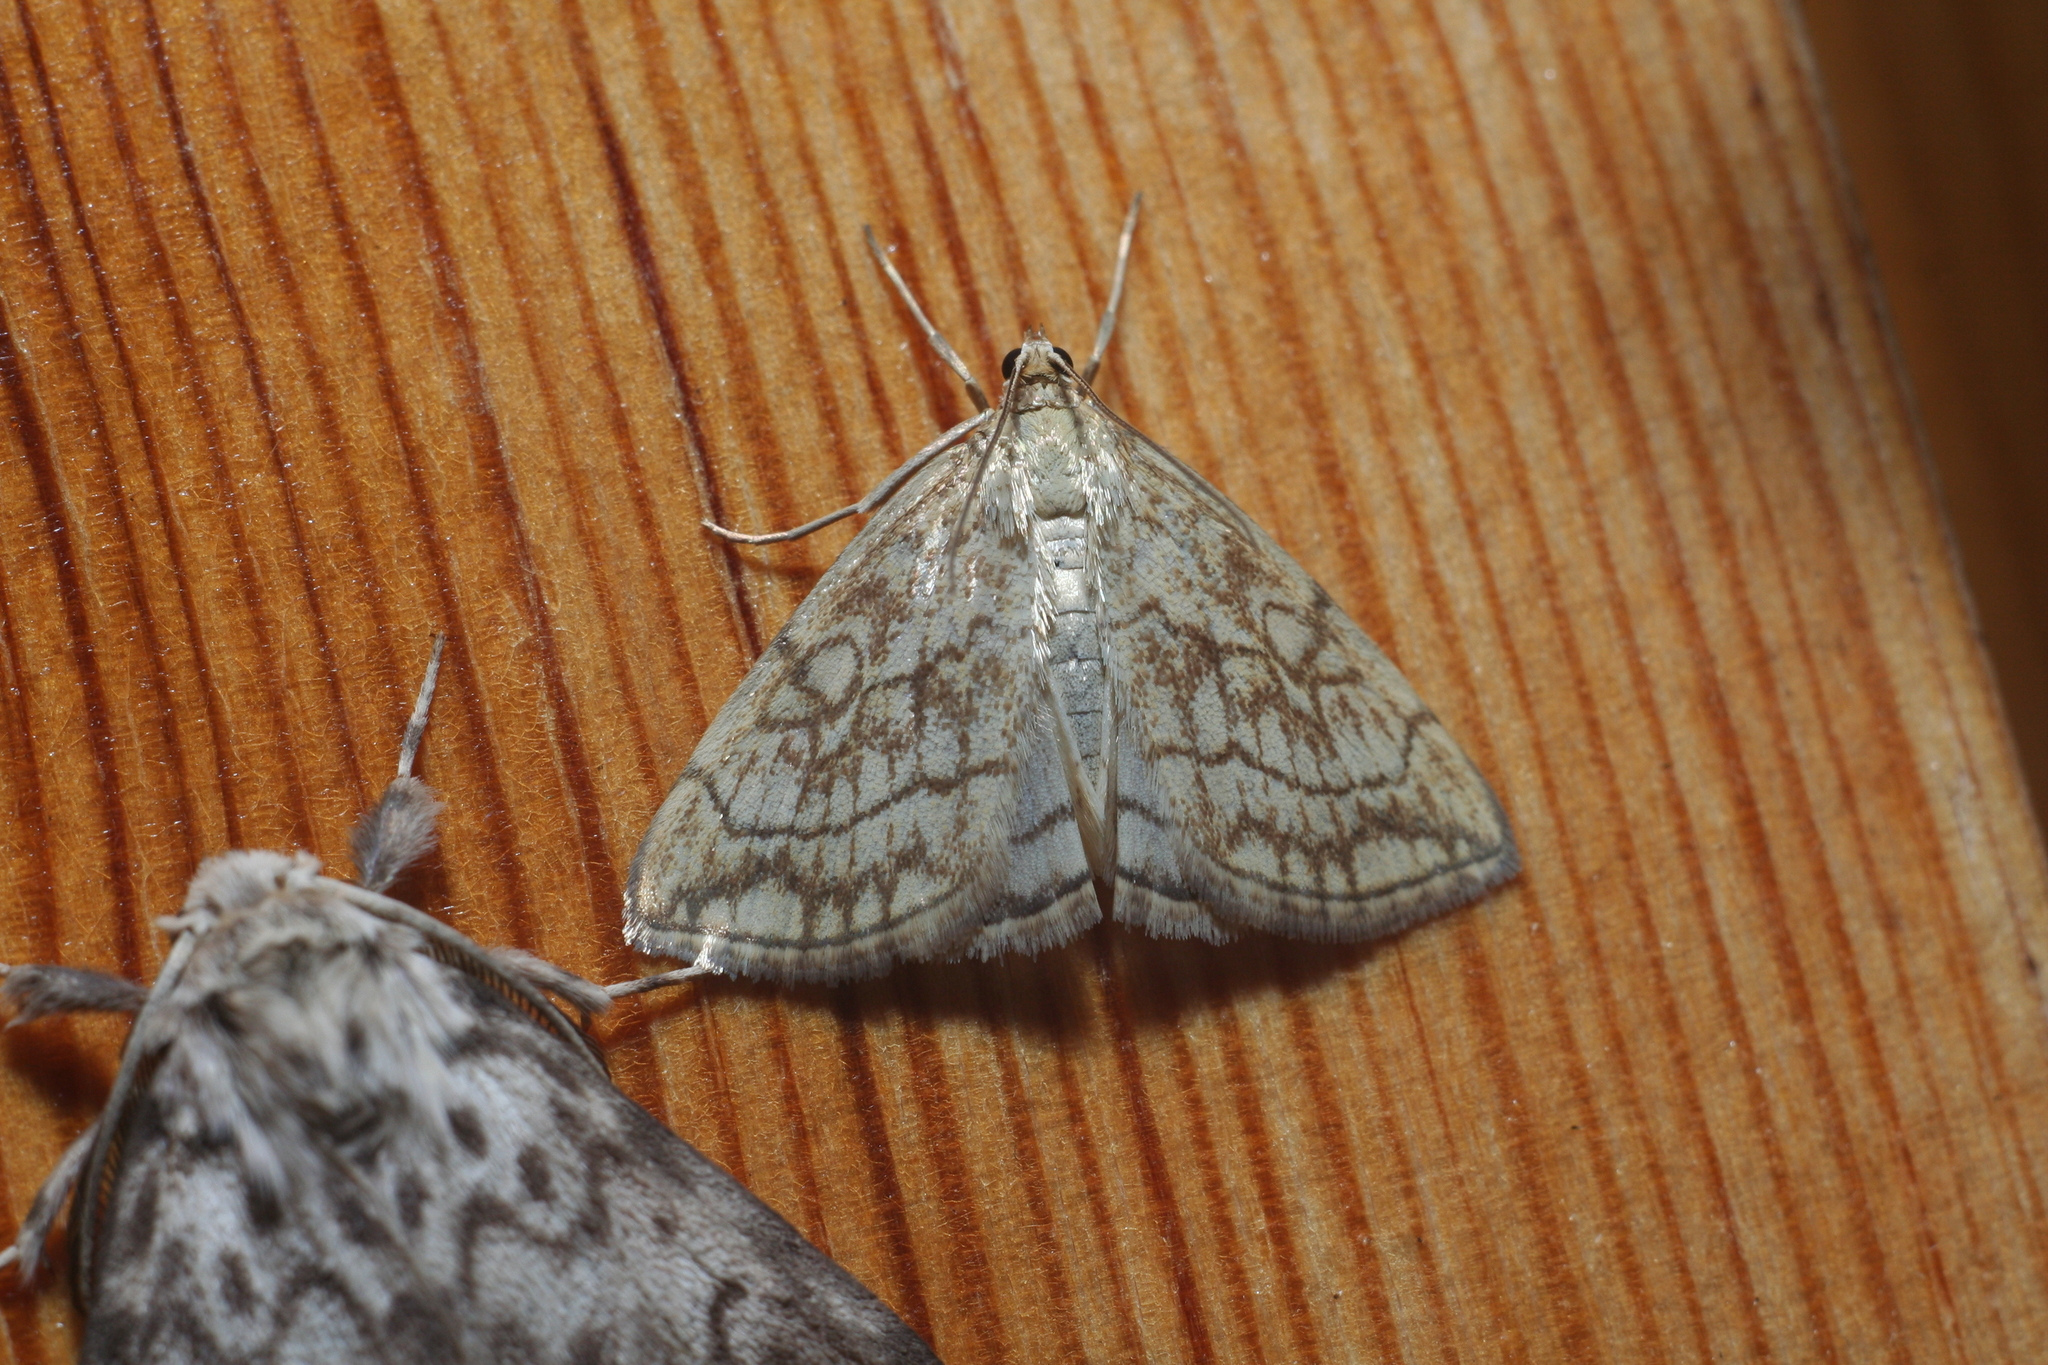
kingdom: Animalia
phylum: Arthropoda
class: Insecta
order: Lepidoptera
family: Crambidae
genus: Evergestis
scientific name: Evergestis pallidata
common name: Chequered pearl
